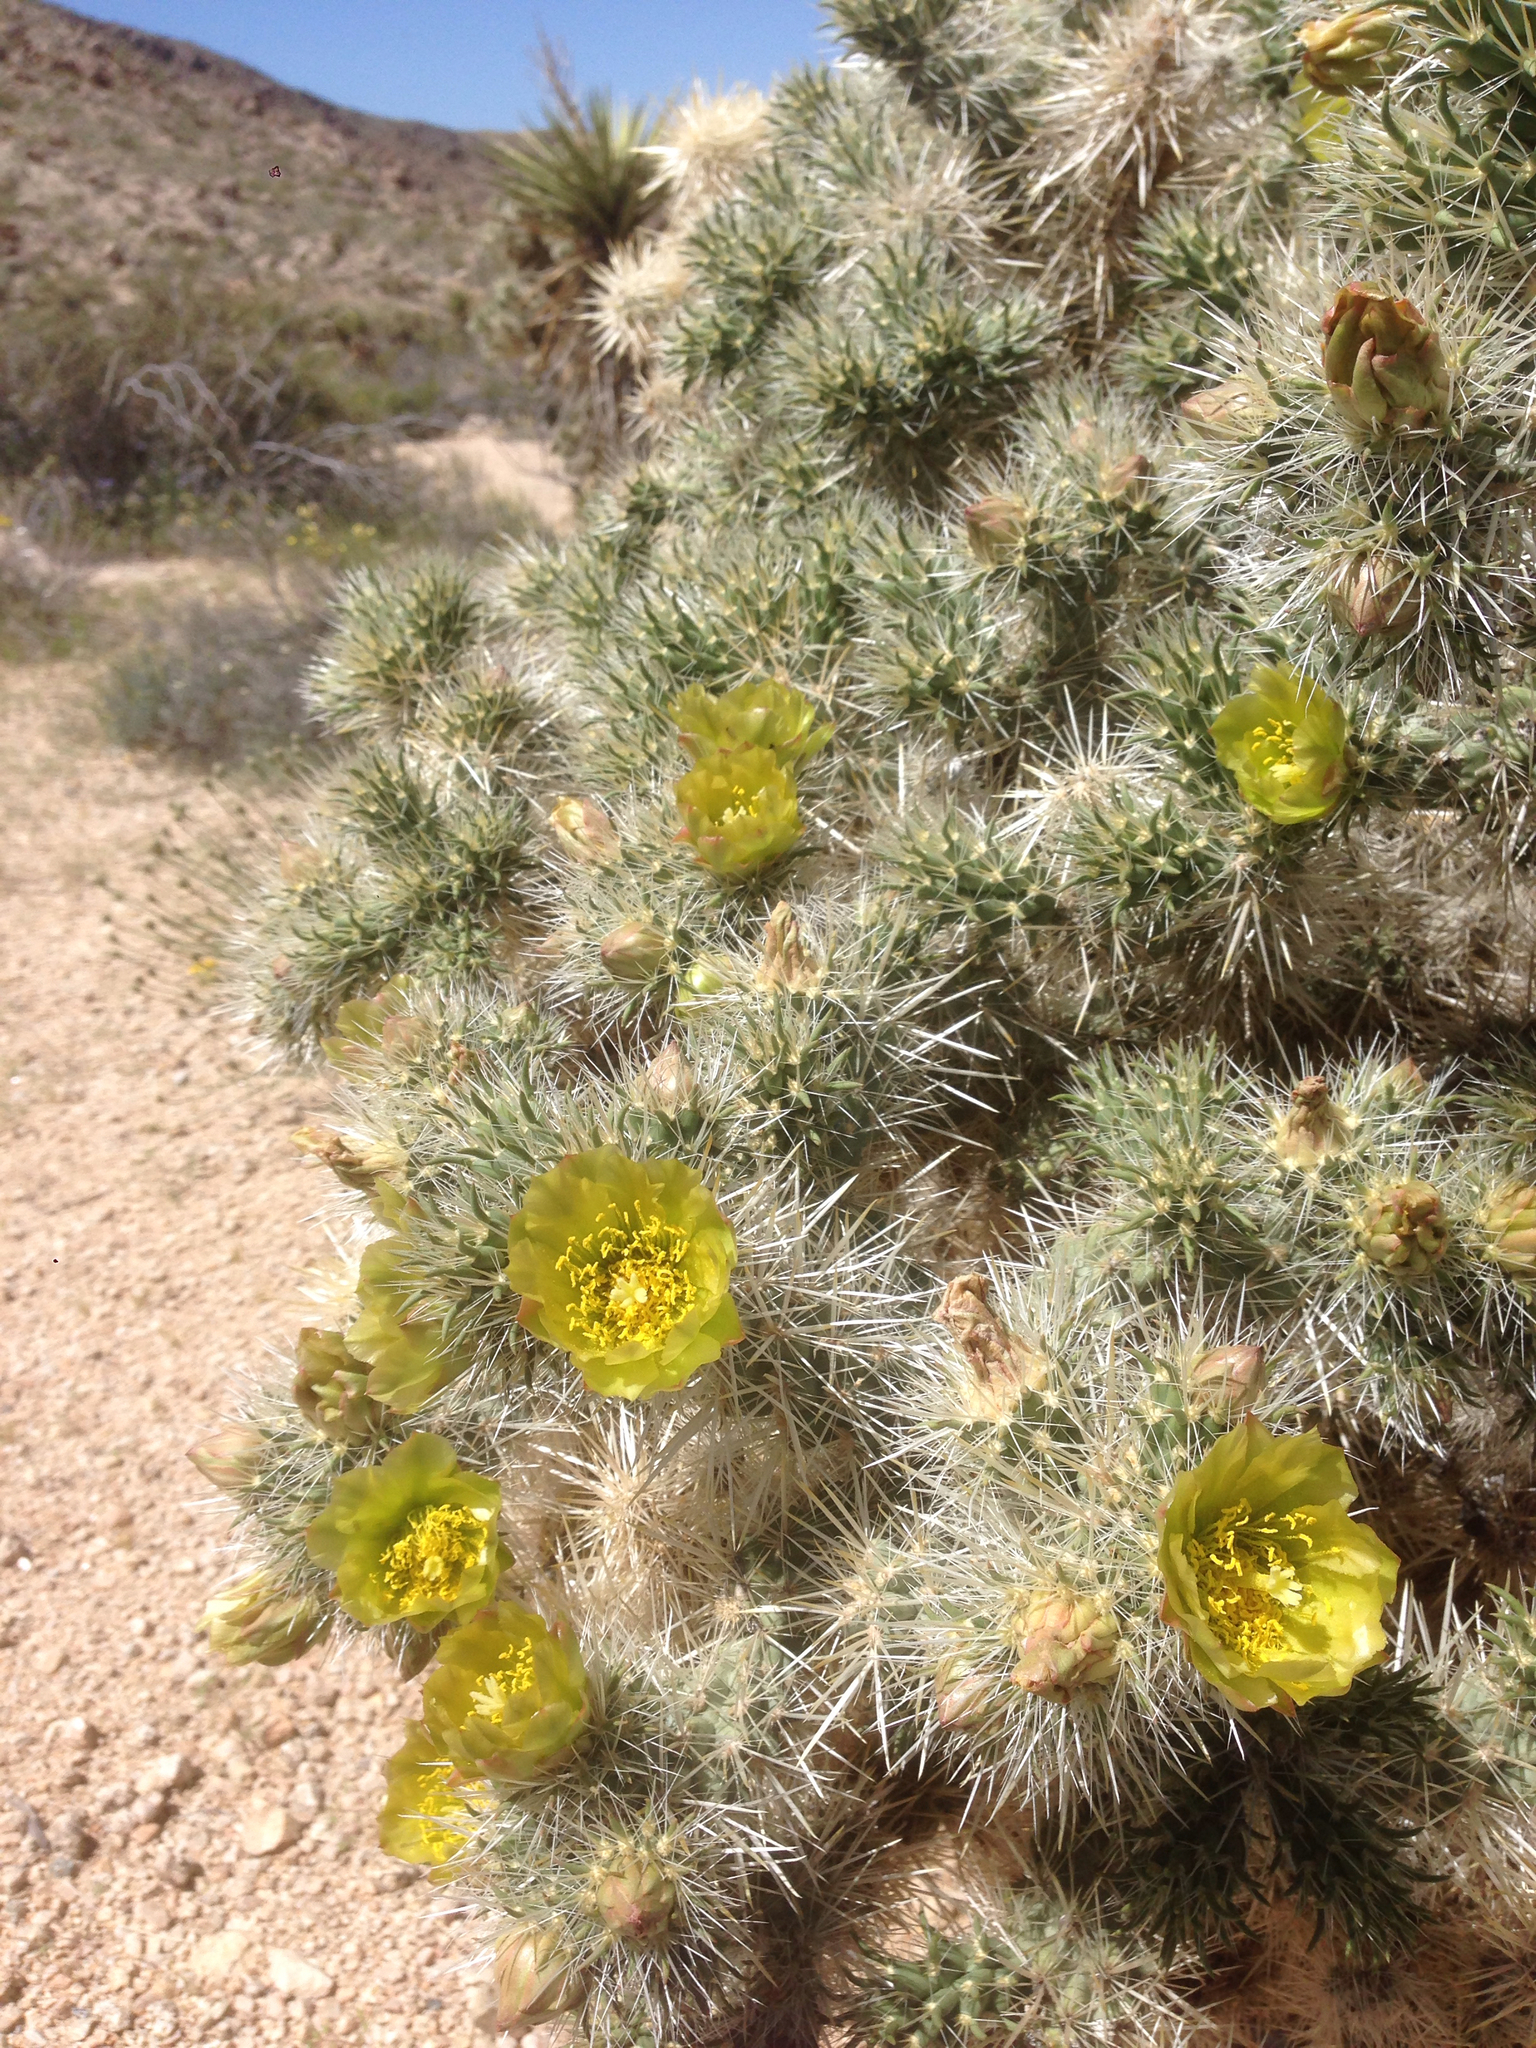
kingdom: Plantae
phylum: Tracheophyta
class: Magnoliopsida
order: Caryophyllales
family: Cactaceae
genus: Cylindropuntia
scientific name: Cylindropuntia echinocarpa
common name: Ground cholla
